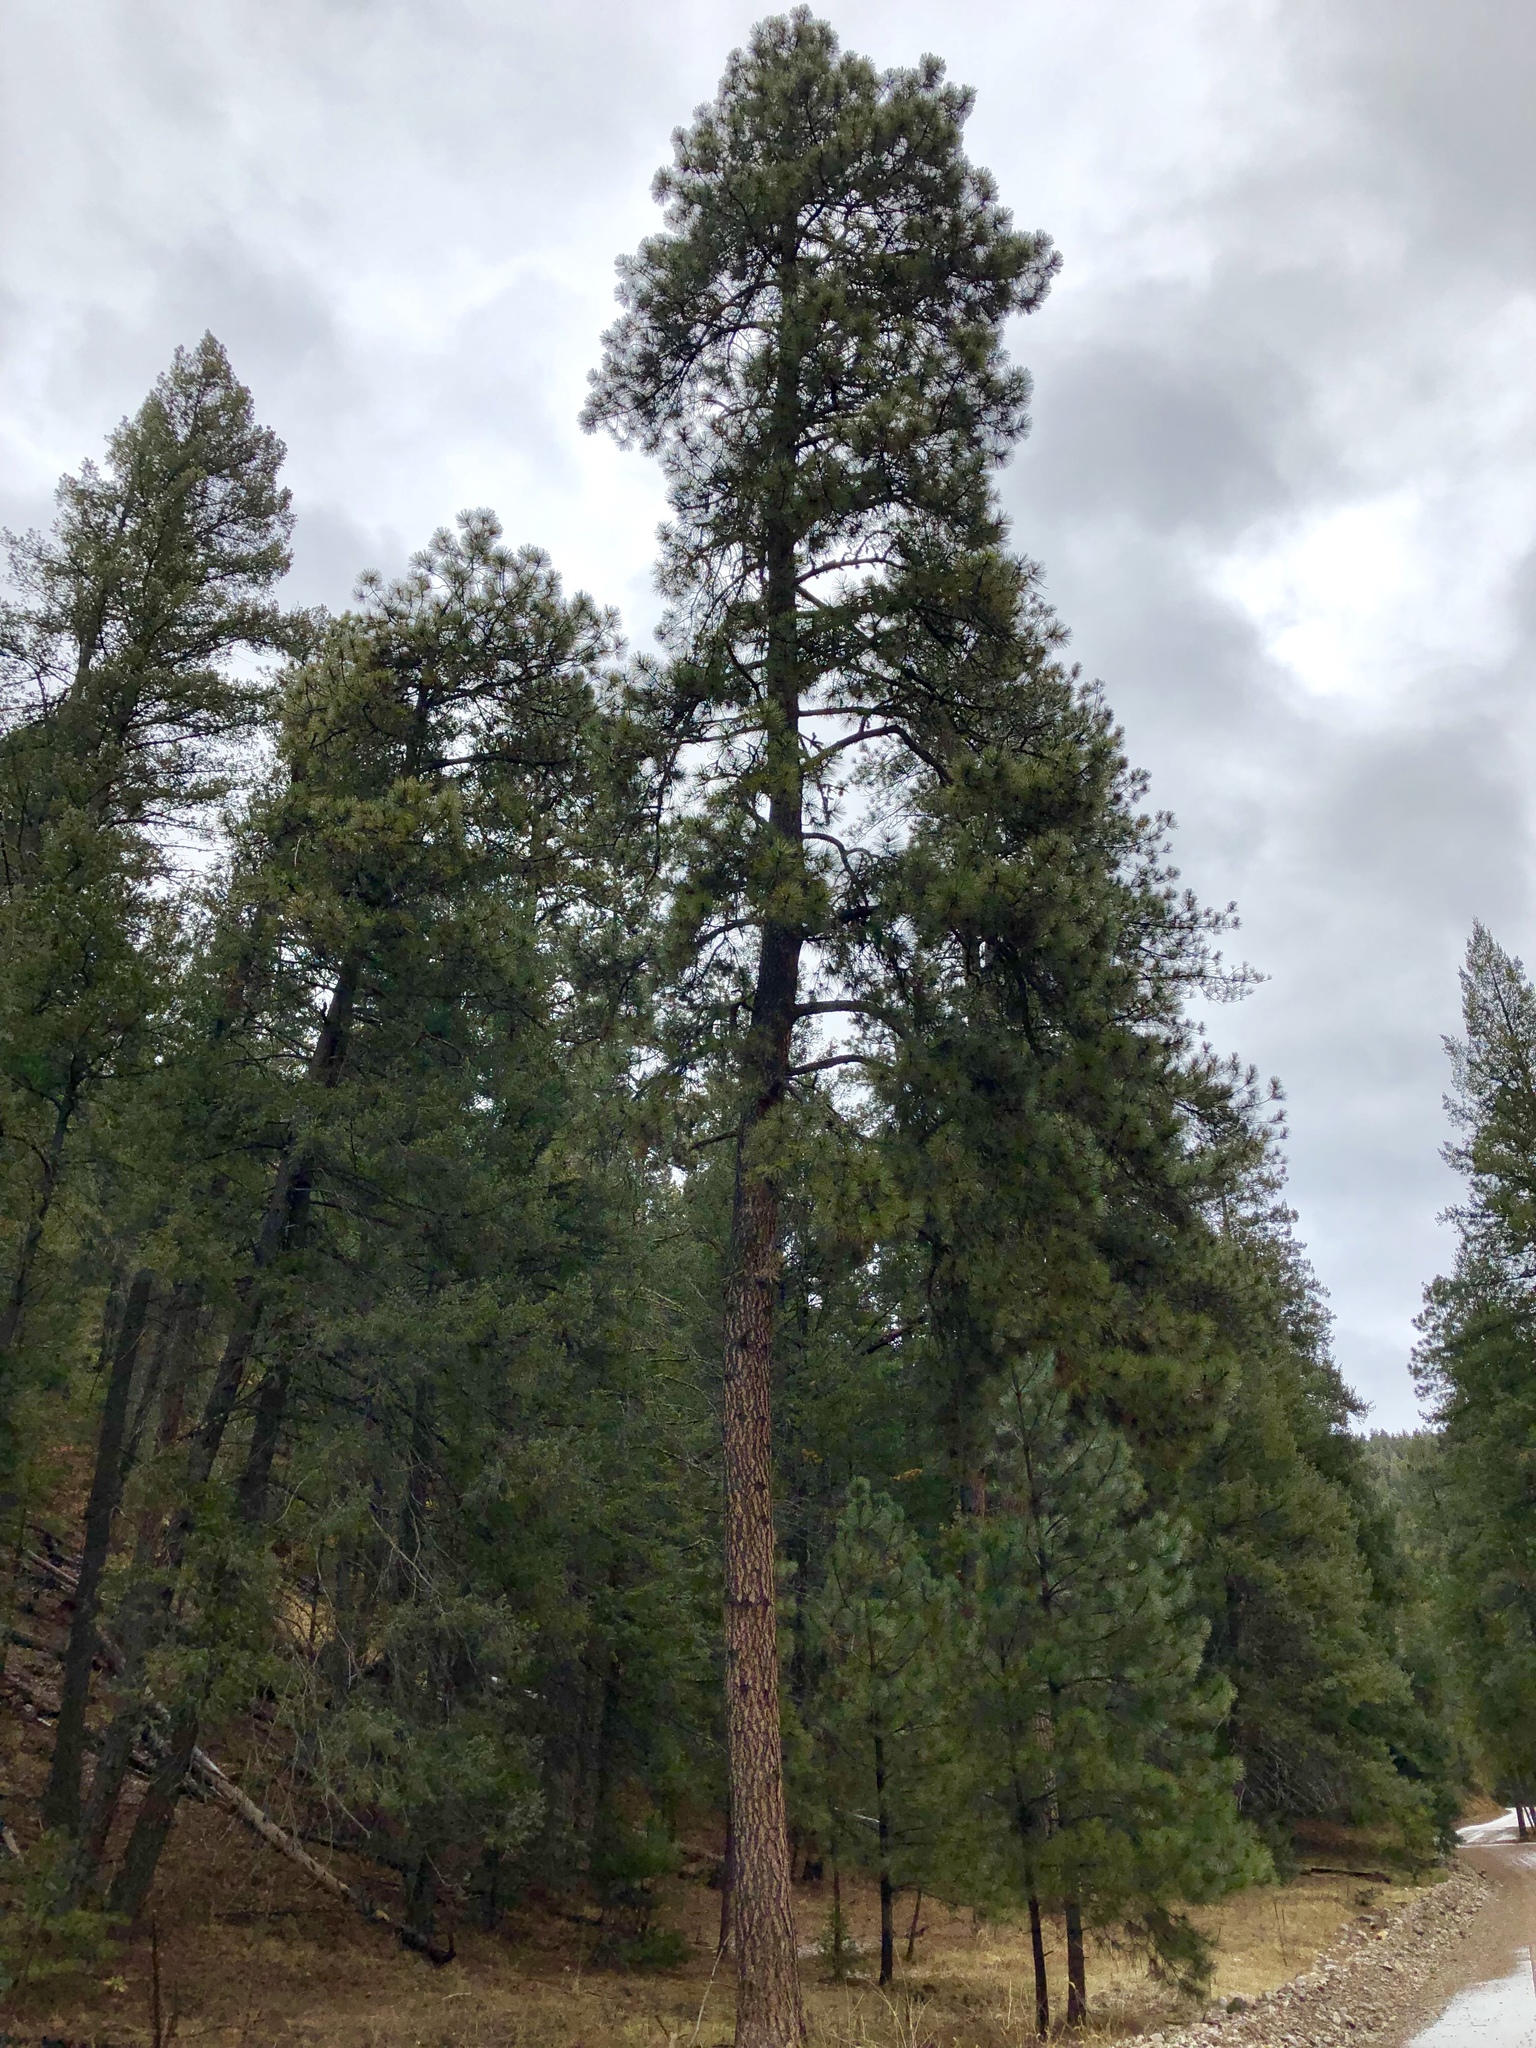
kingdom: Plantae
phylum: Tracheophyta
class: Pinopsida
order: Pinales
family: Pinaceae
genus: Pinus
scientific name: Pinus ponderosa
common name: Western yellow-pine
